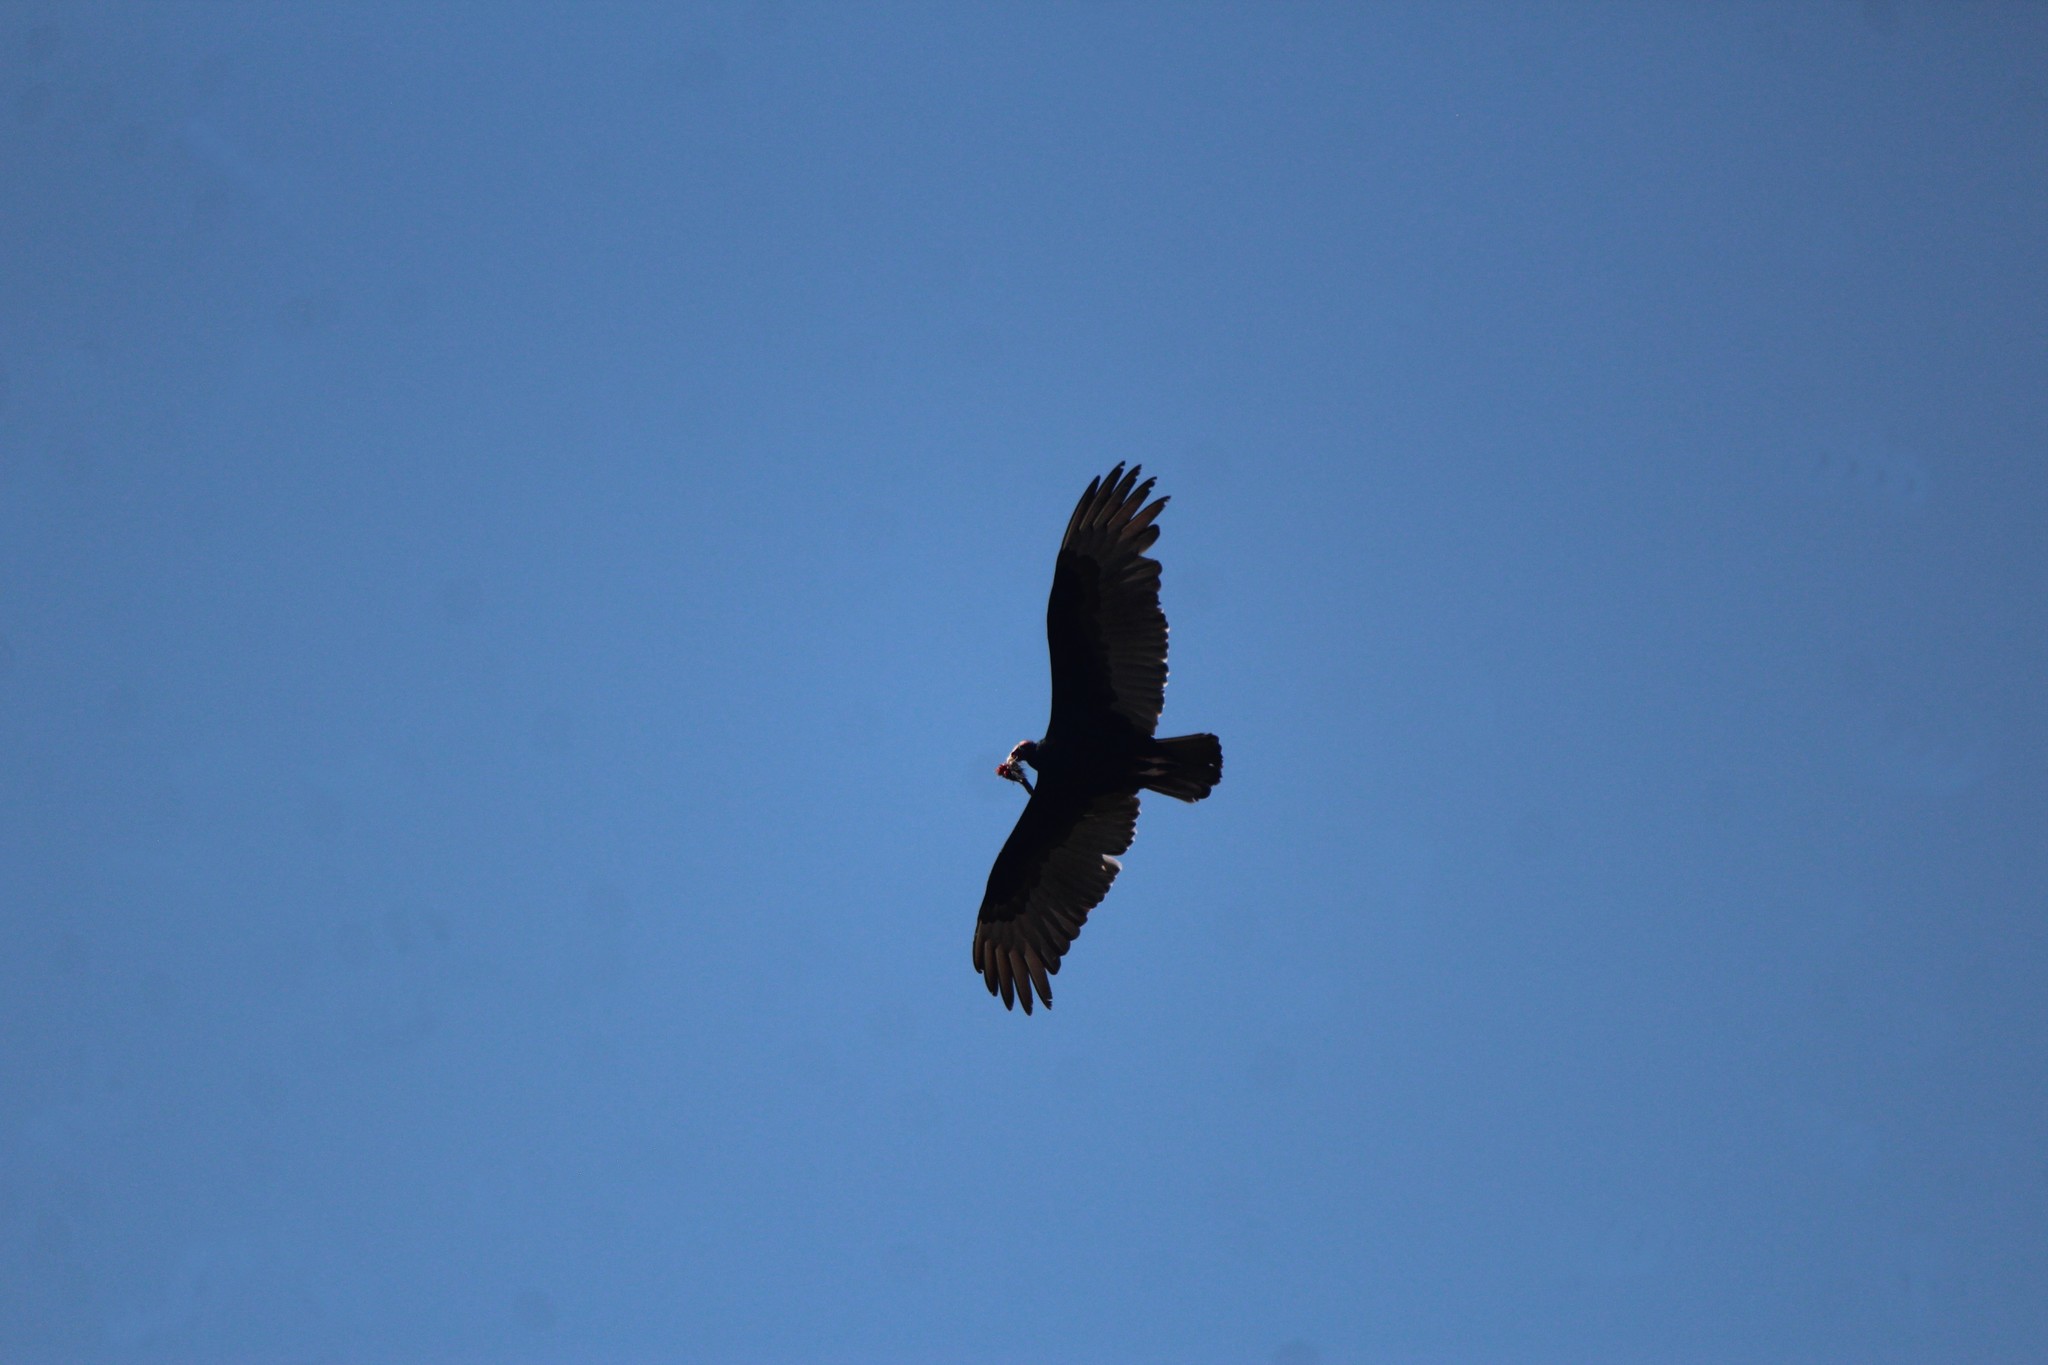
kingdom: Animalia
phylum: Chordata
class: Aves
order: Accipitriformes
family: Cathartidae
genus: Cathartes
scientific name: Cathartes aura
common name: Turkey vulture
